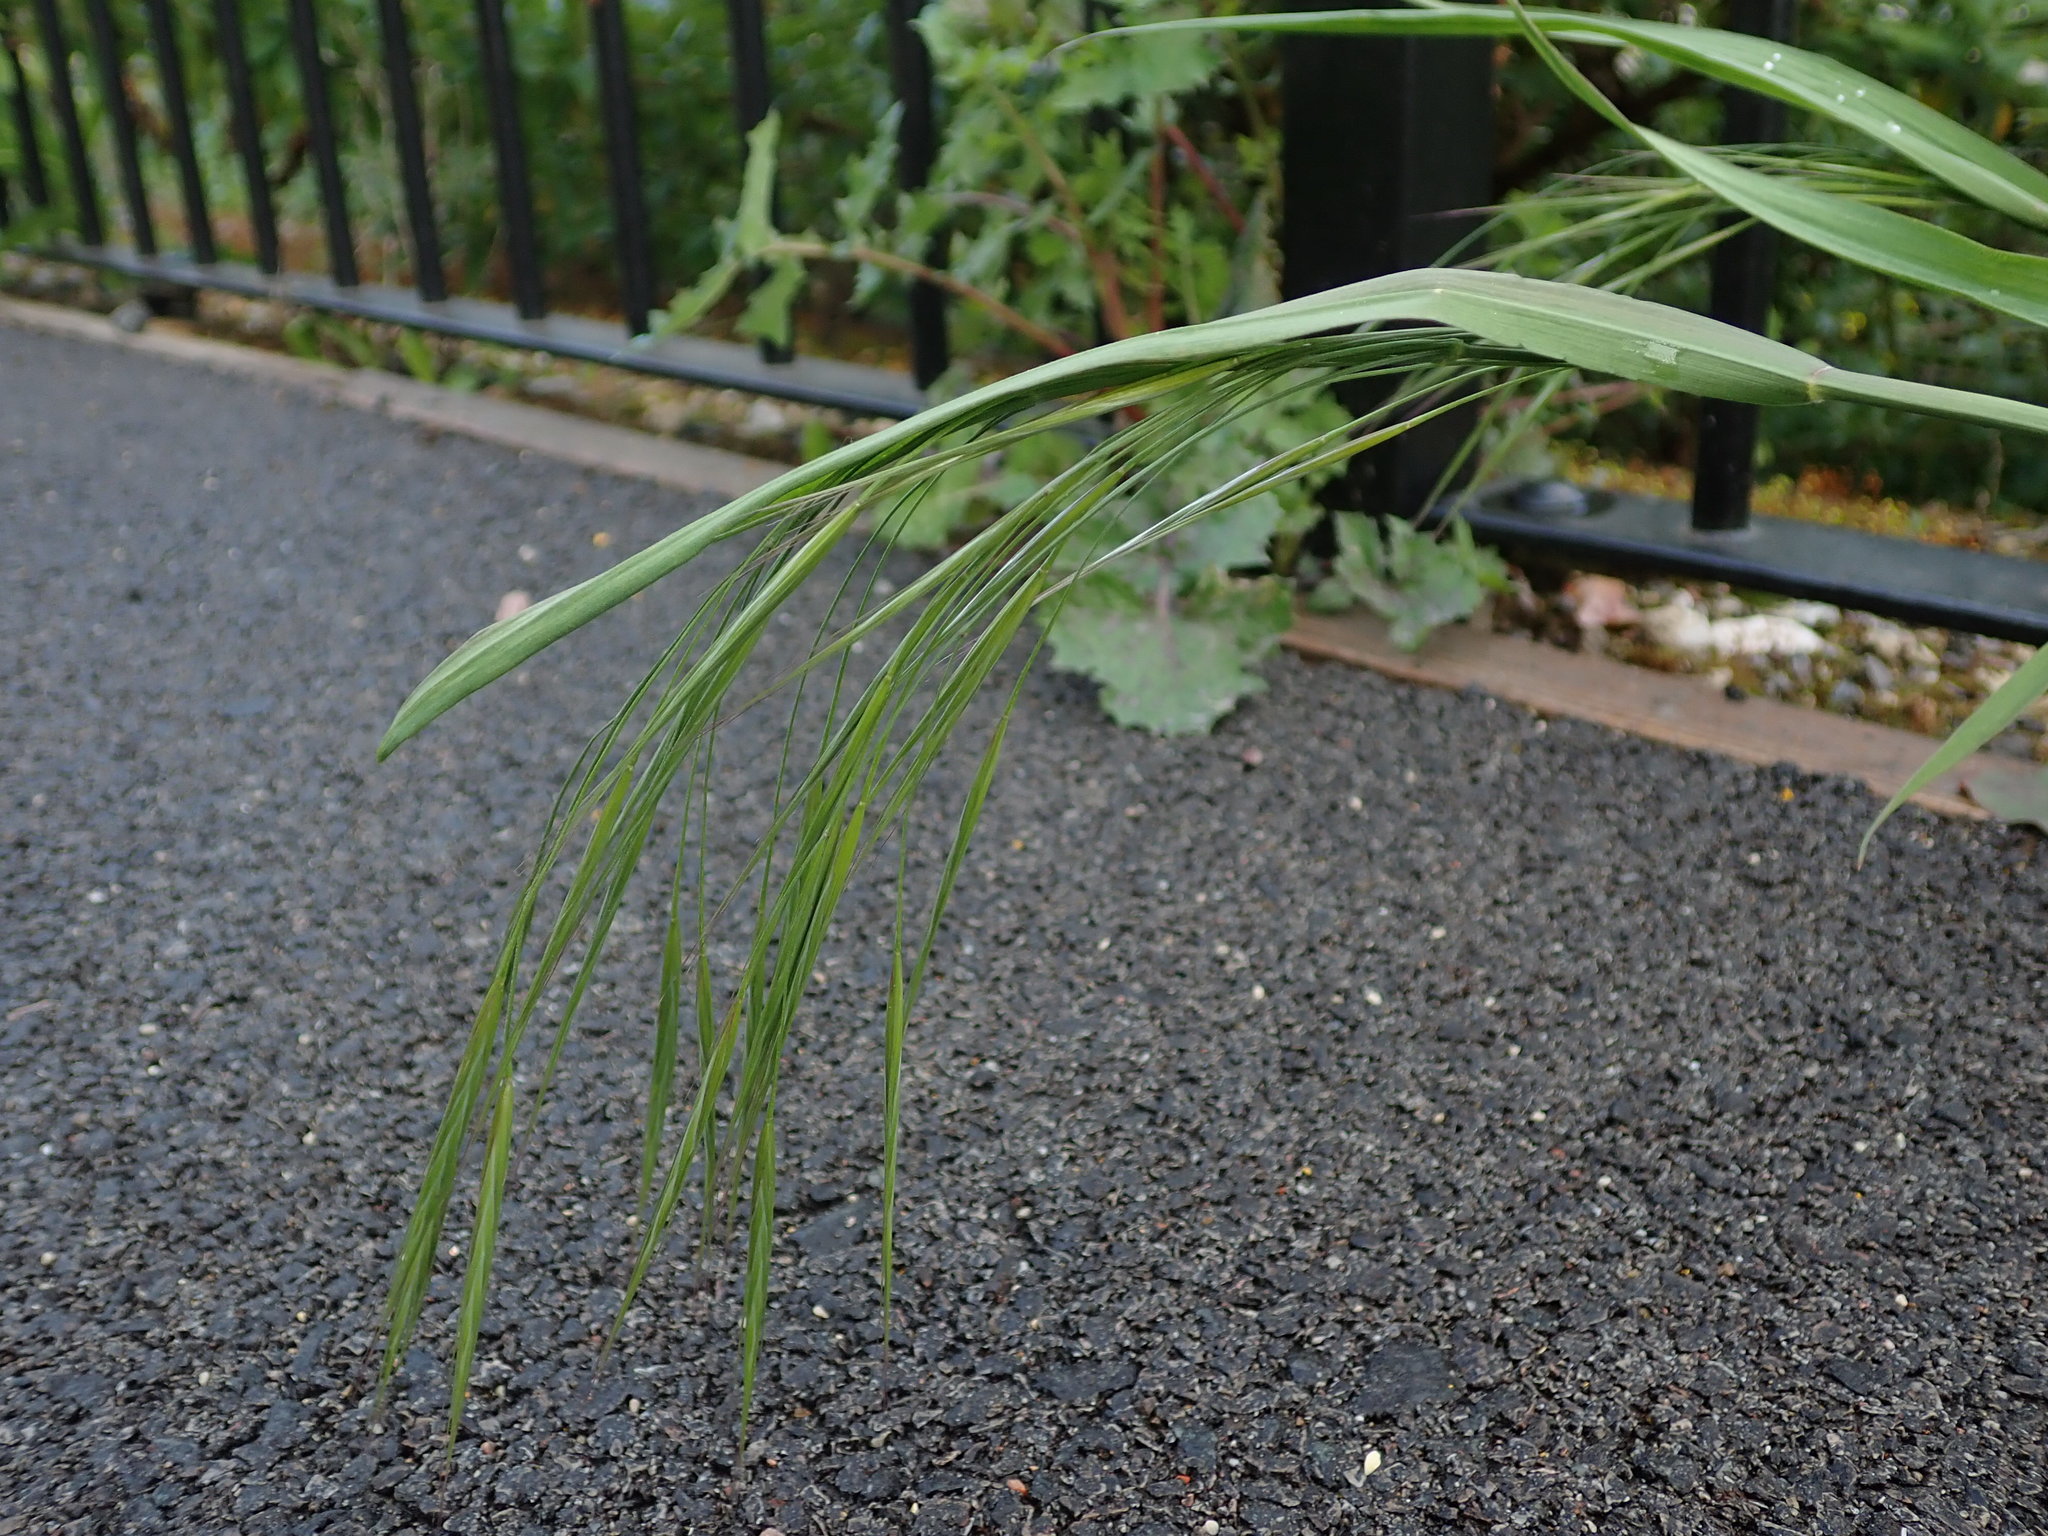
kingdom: Plantae
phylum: Tracheophyta
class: Liliopsida
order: Poales
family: Poaceae
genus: Bromus
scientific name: Bromus sterilis
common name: Poverty brome
